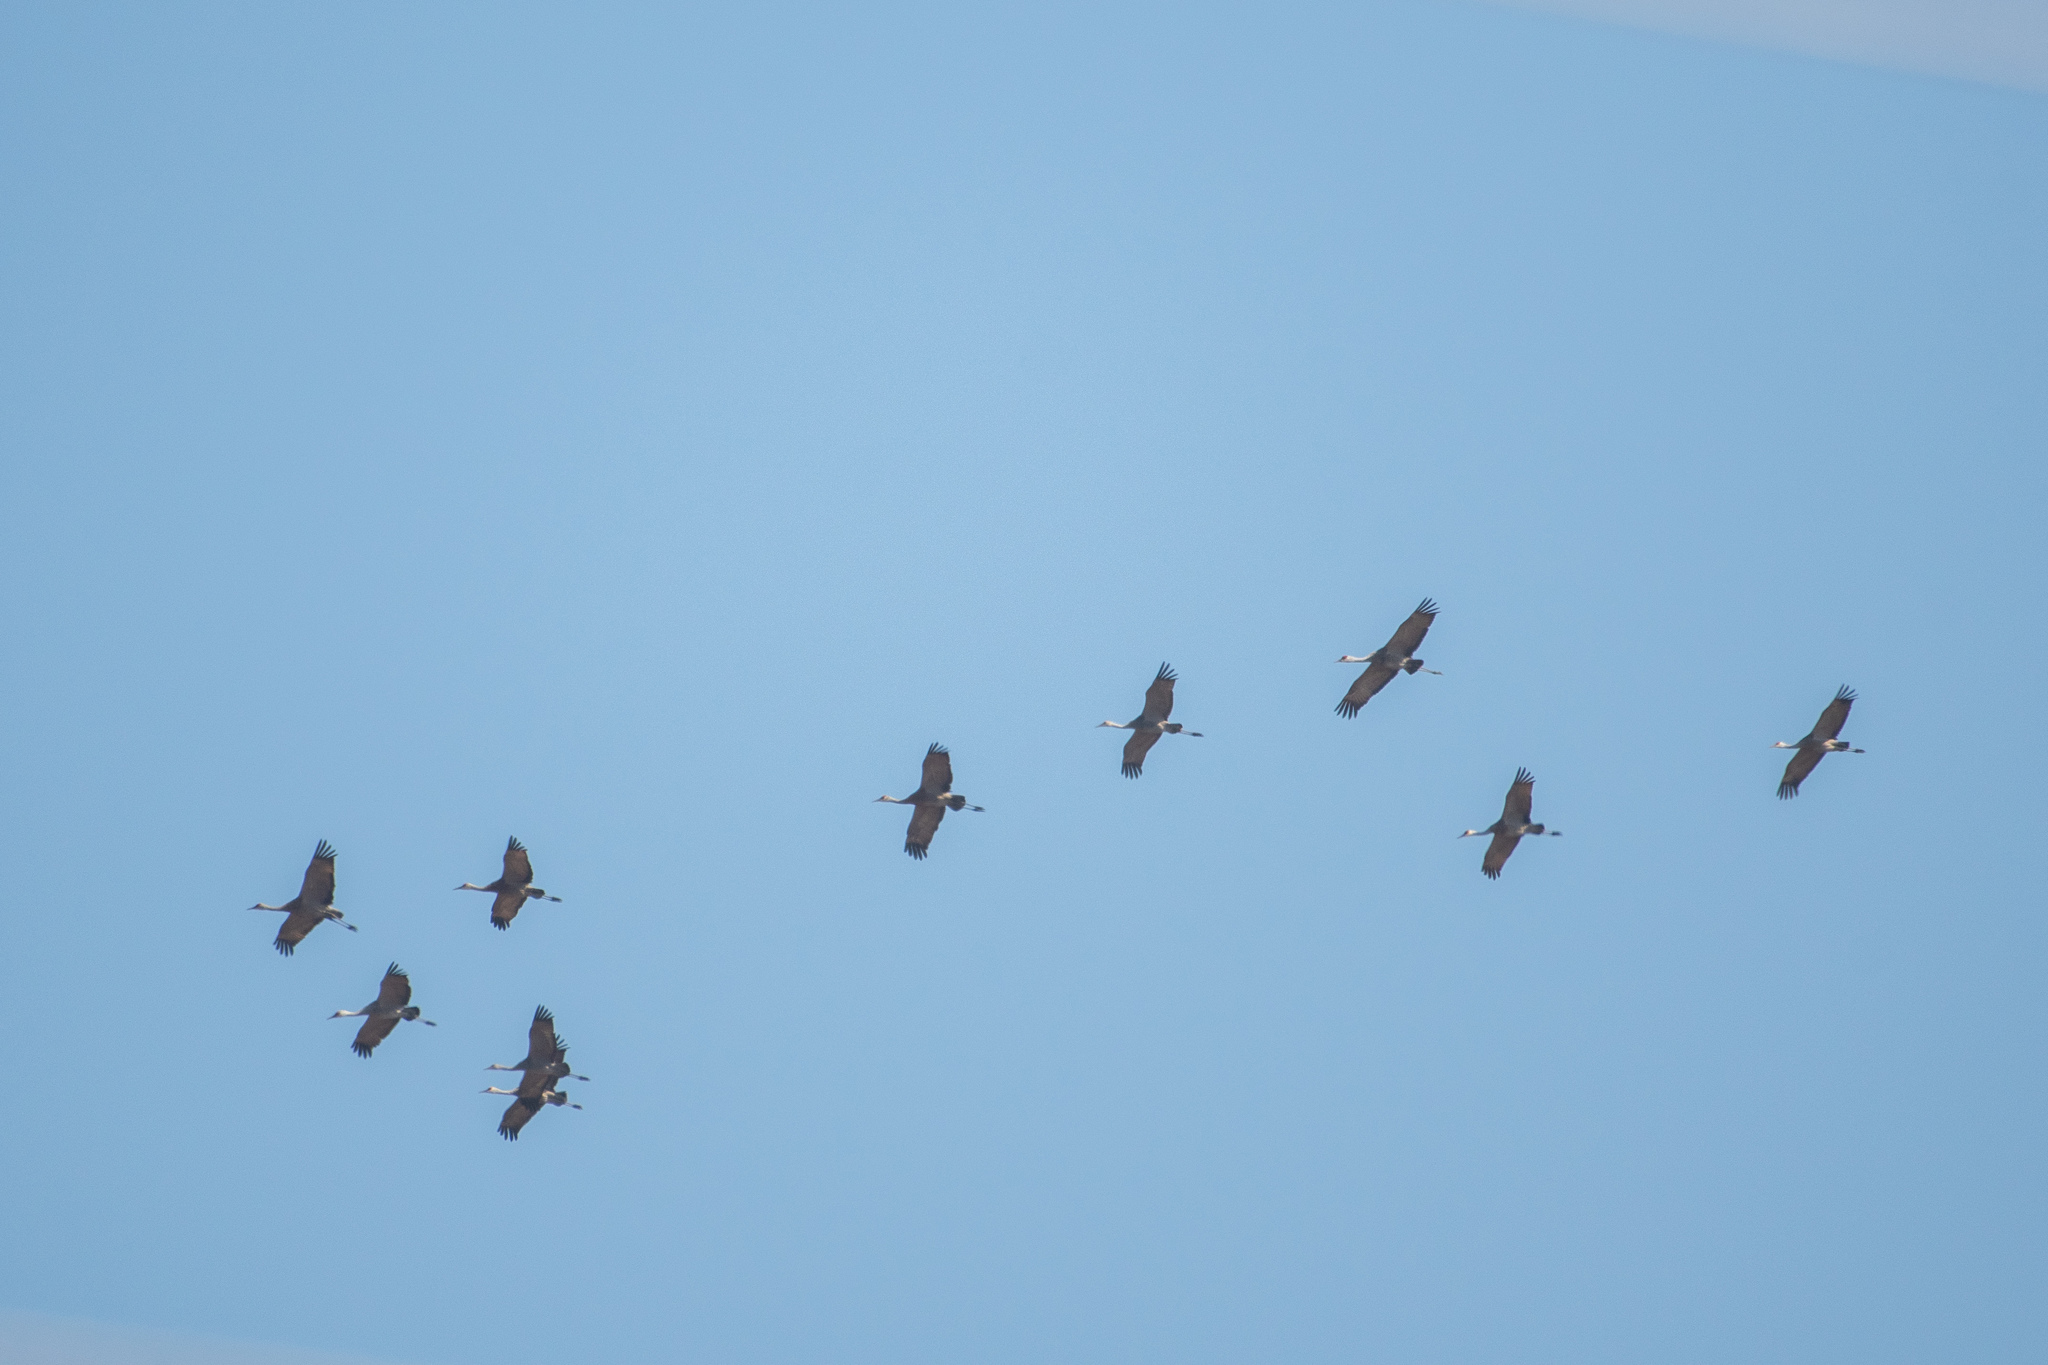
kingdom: Animalia
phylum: Chordata
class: Aves
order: Gruiformes
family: Gruidae
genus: Grus
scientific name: Grus canadensis
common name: Sandhill crane
